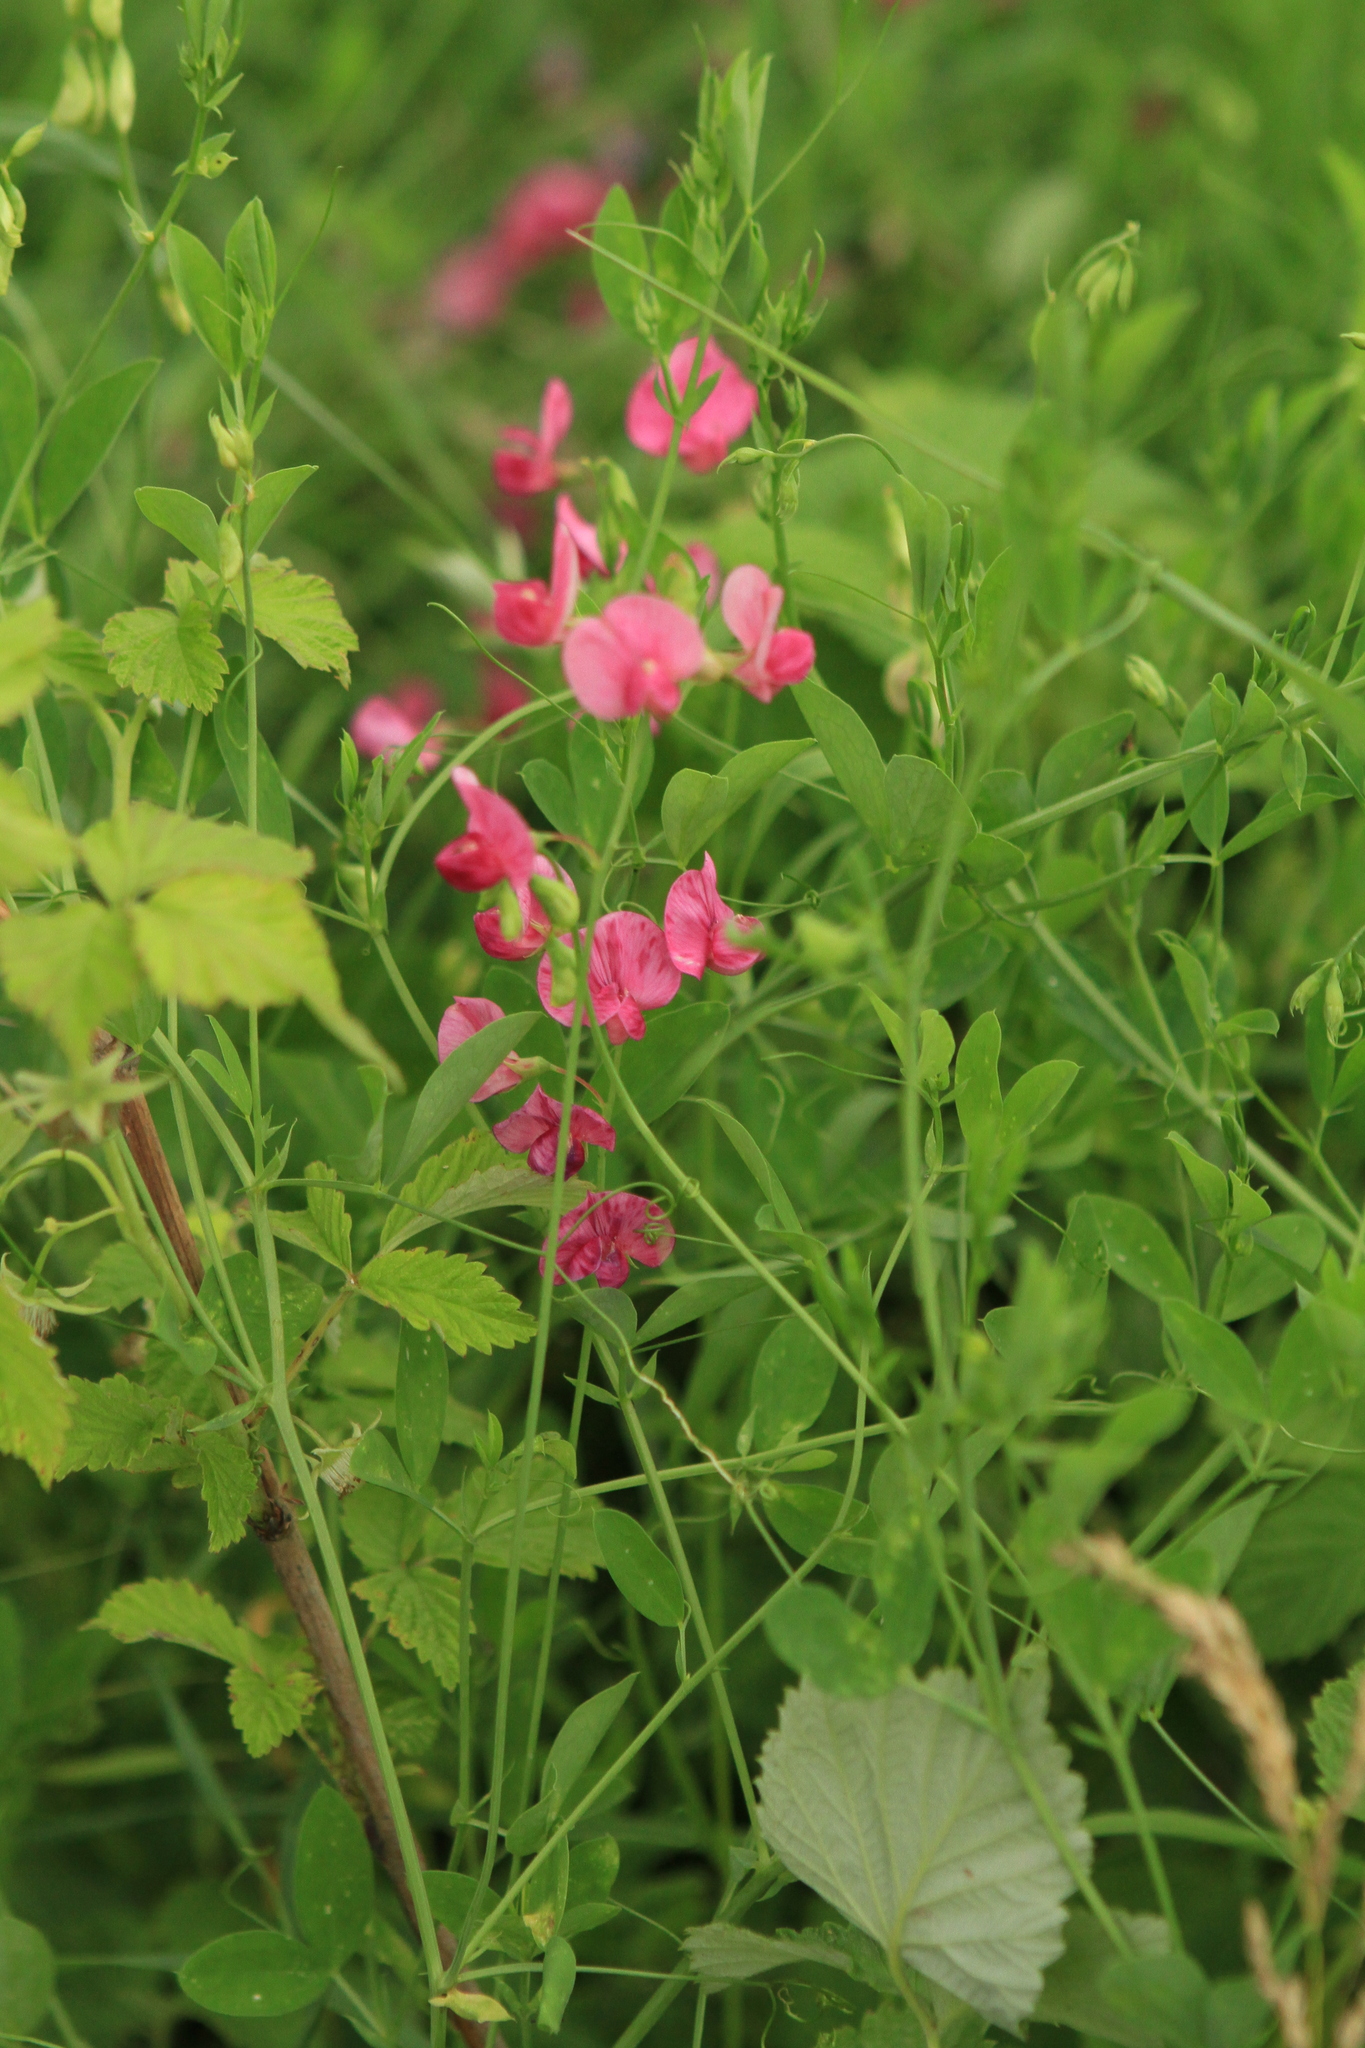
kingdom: Plantae
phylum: Tracheophyta
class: Magnoliopsida
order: Fabales
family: Fabaceae
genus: Lathyrus
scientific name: Lathyrus tuberosus
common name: Tuberous pea
